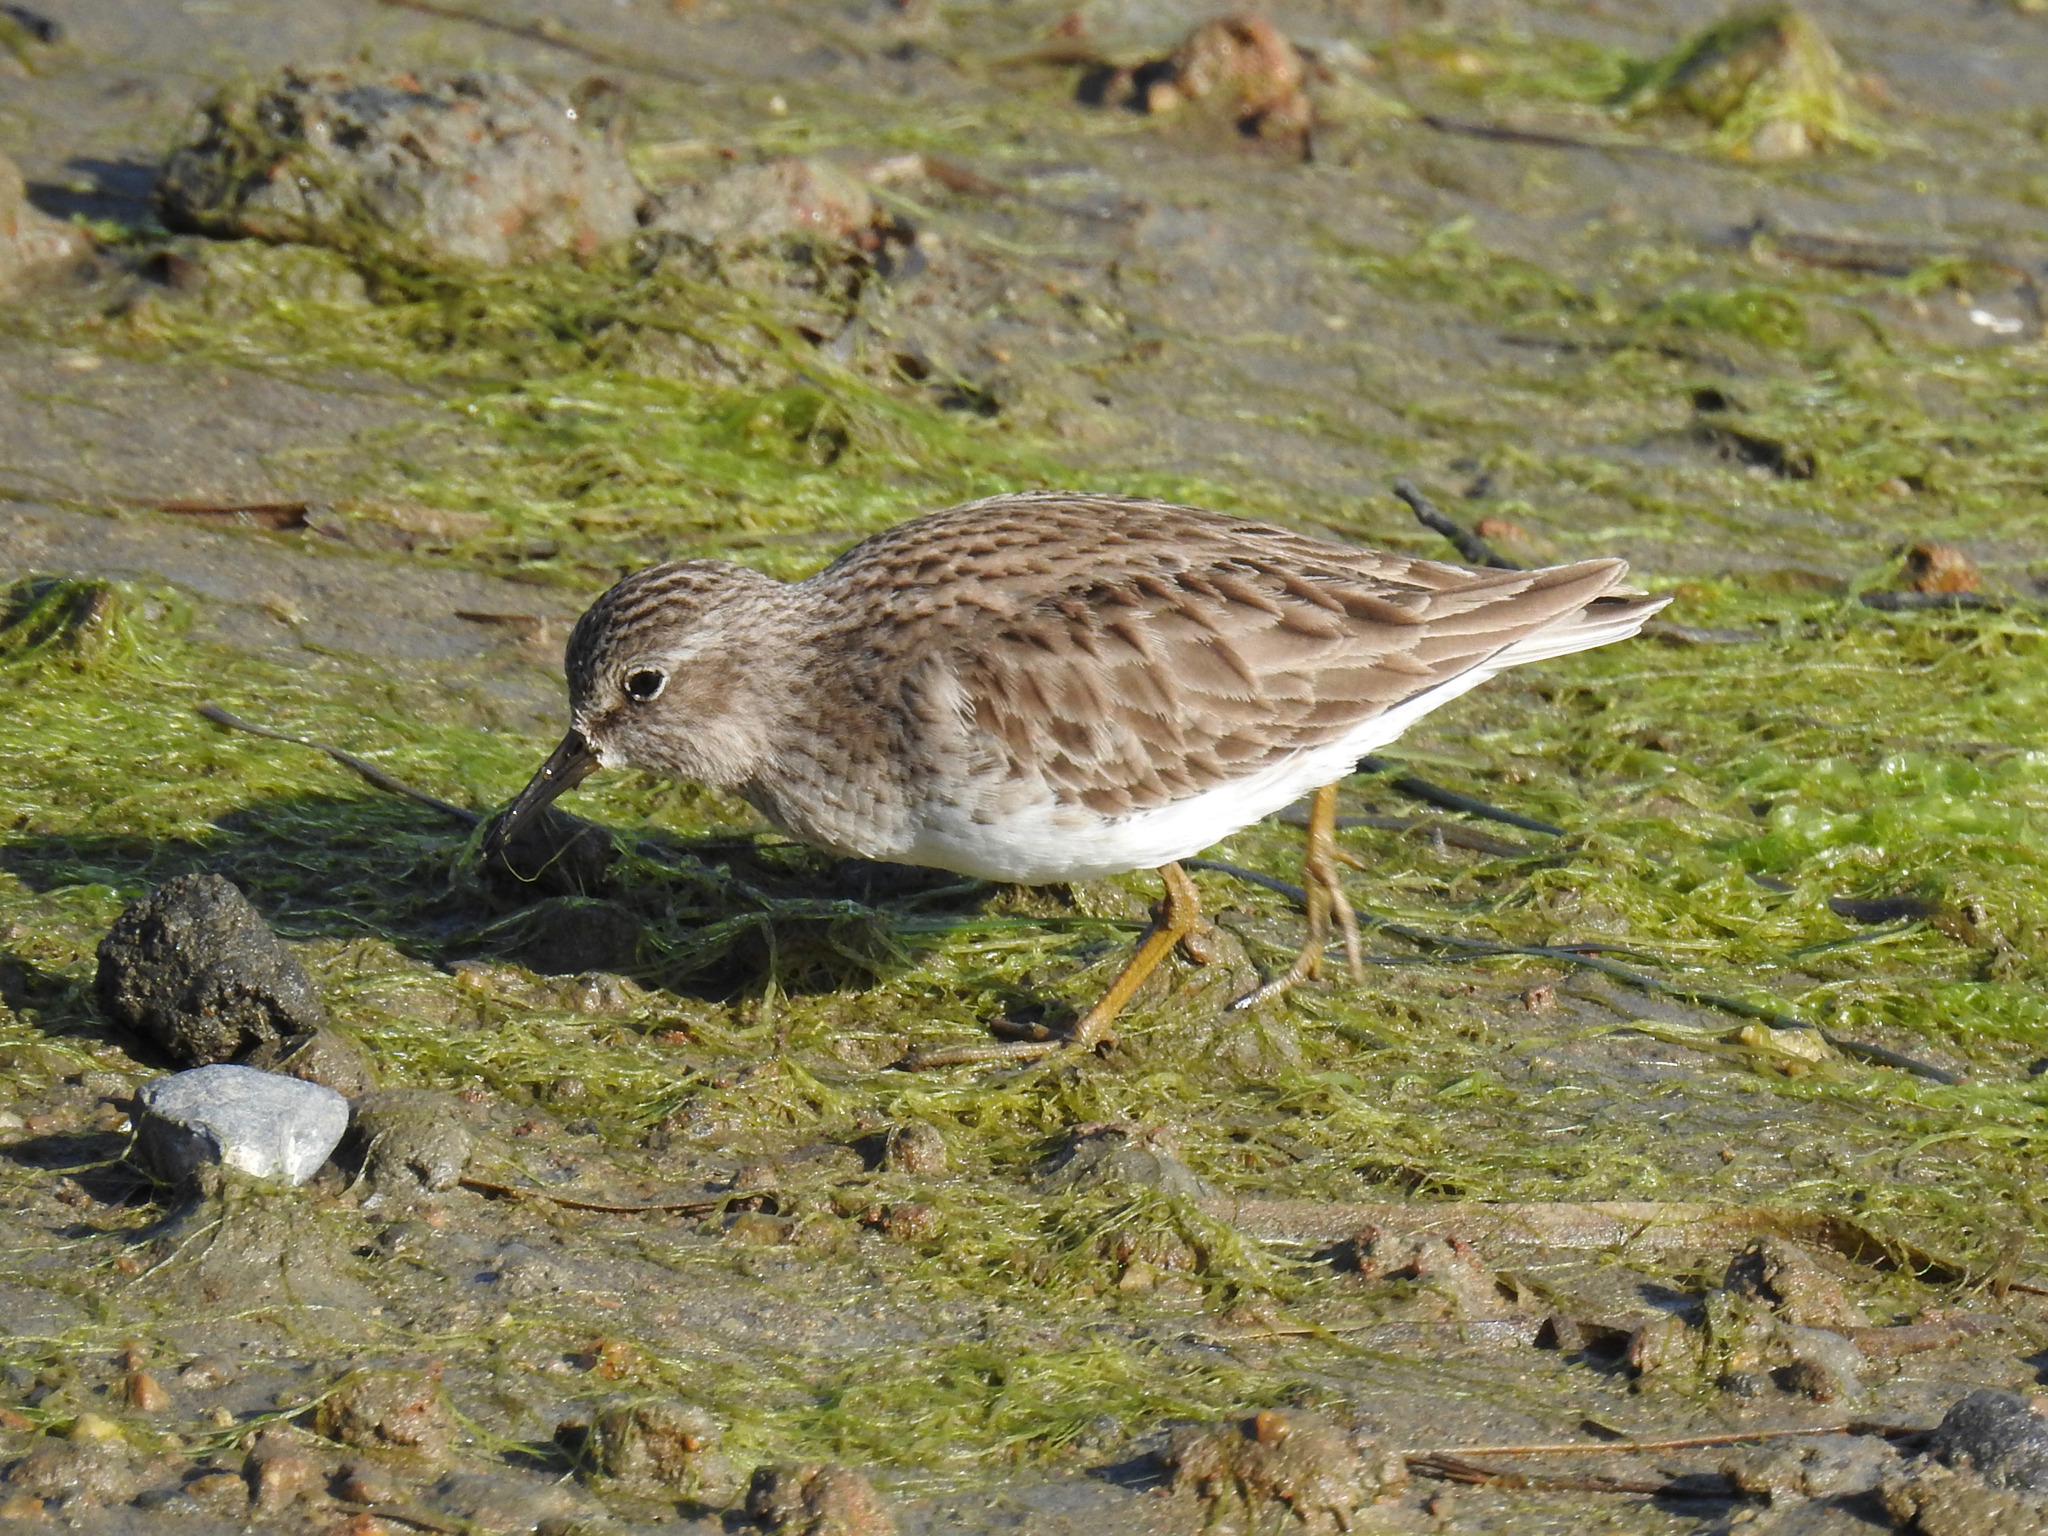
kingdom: Animalia
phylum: Chordata
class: Aves
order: Charadriiformes
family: Scolopacidae
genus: Calidris
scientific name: Calidris minutilla
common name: Least sandpiper
